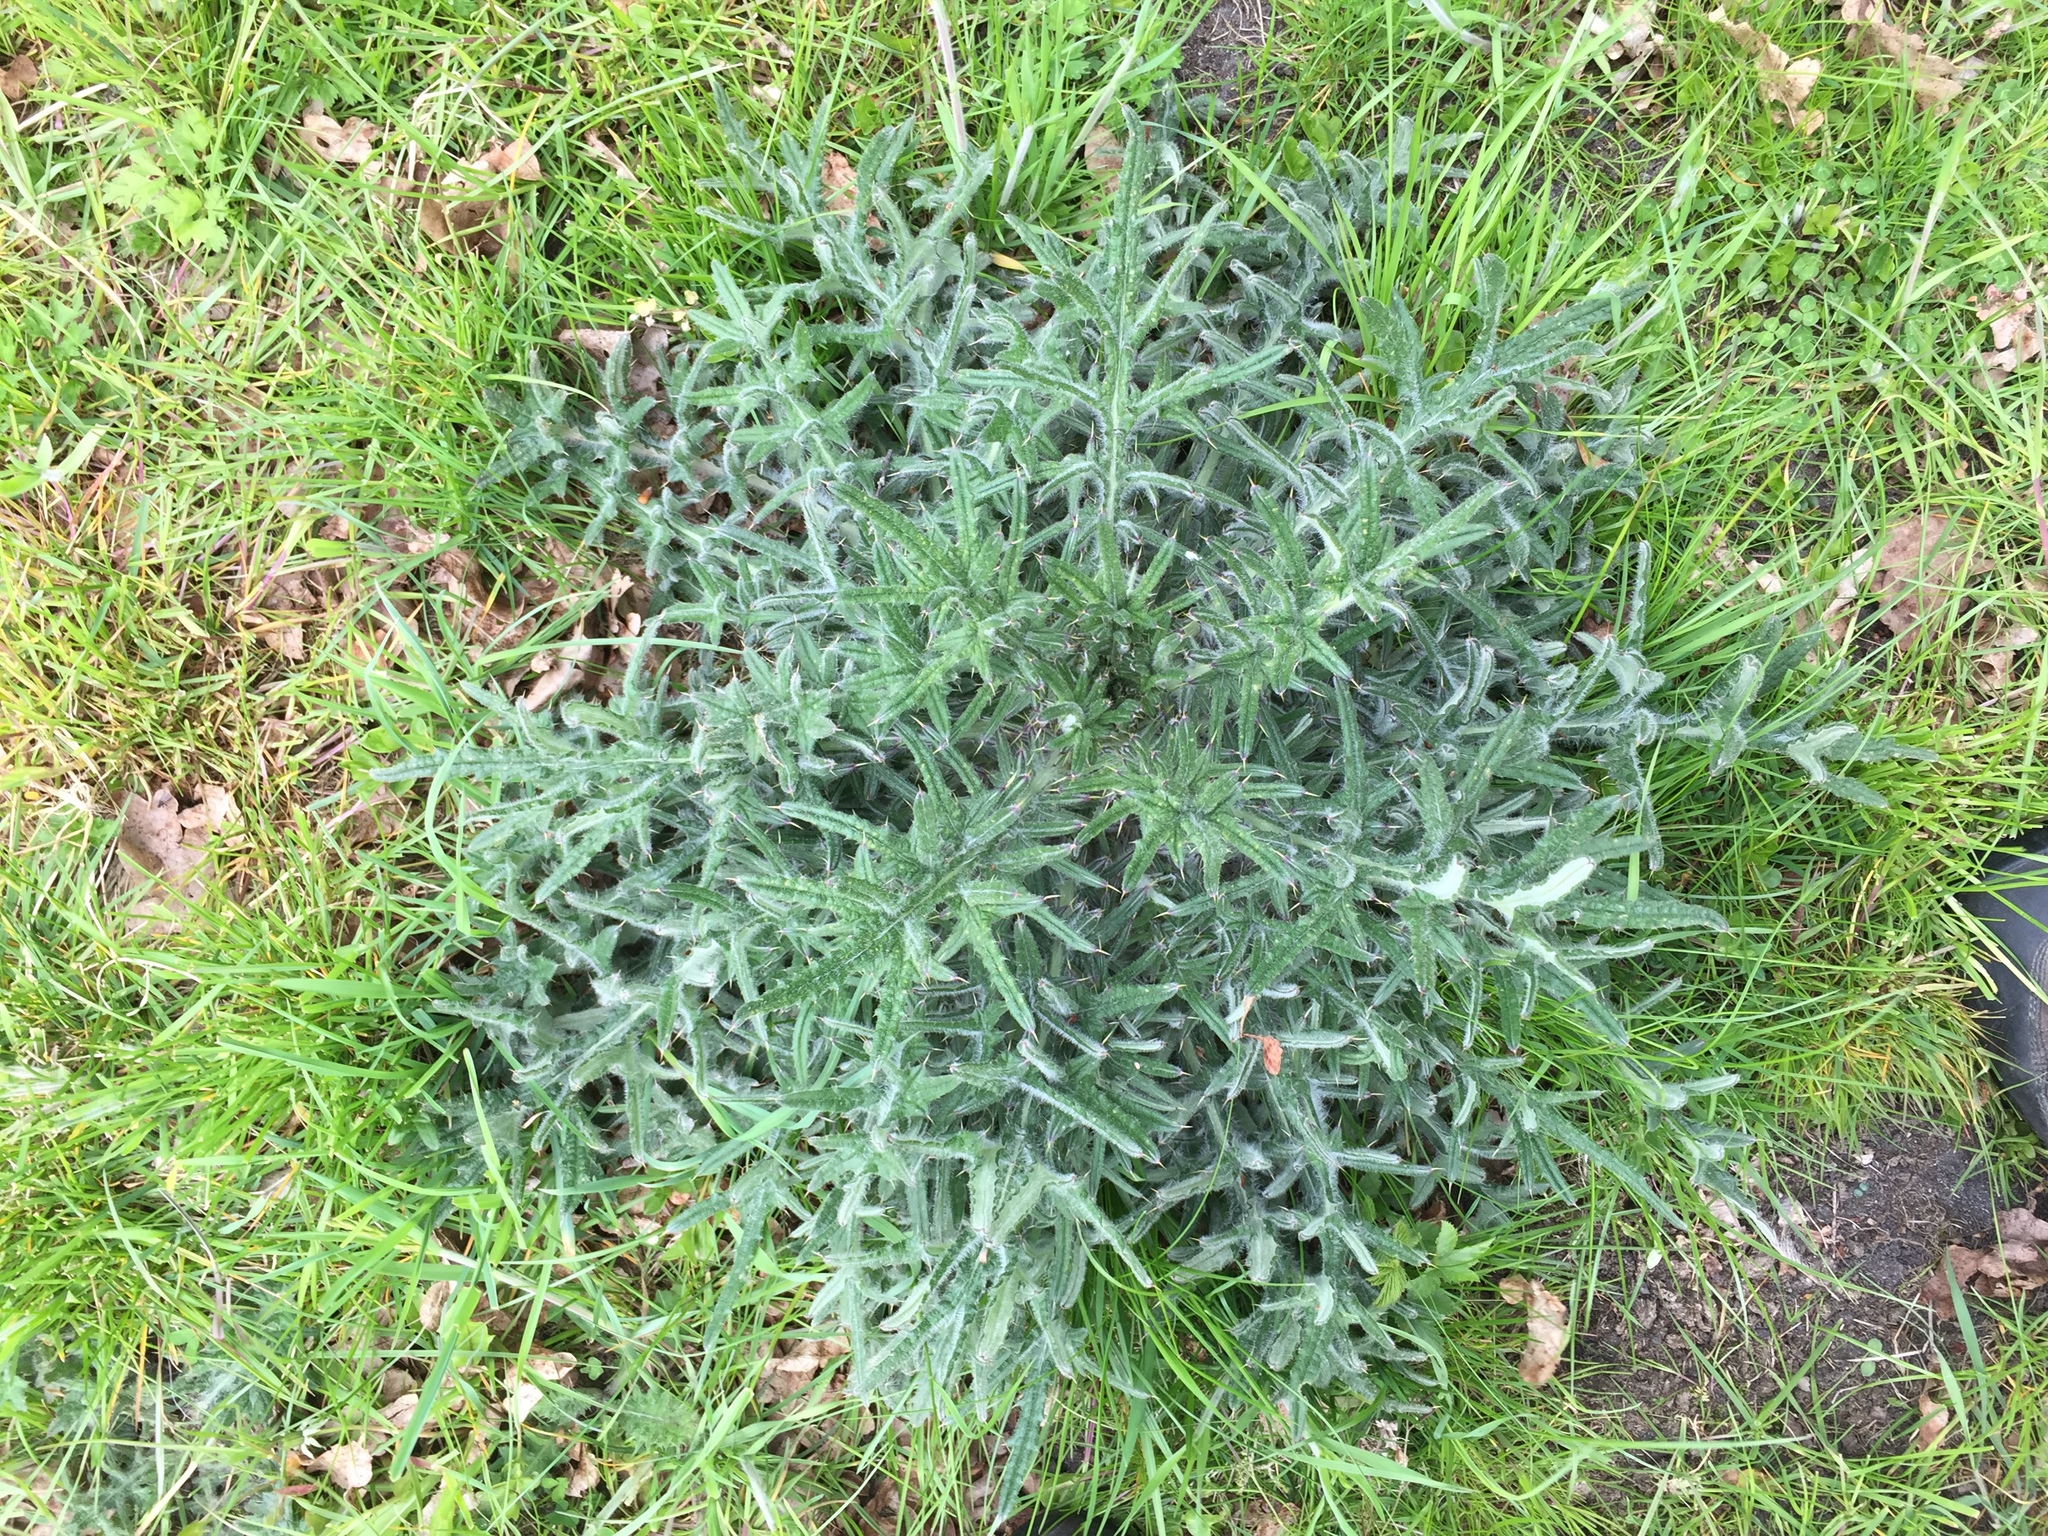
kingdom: Plantae
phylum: Tracheophyta
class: Magnoliopsida
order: Asterales
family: Asteraceae
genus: Cirsium
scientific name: Cirsium vulgare
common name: Bull thistle
